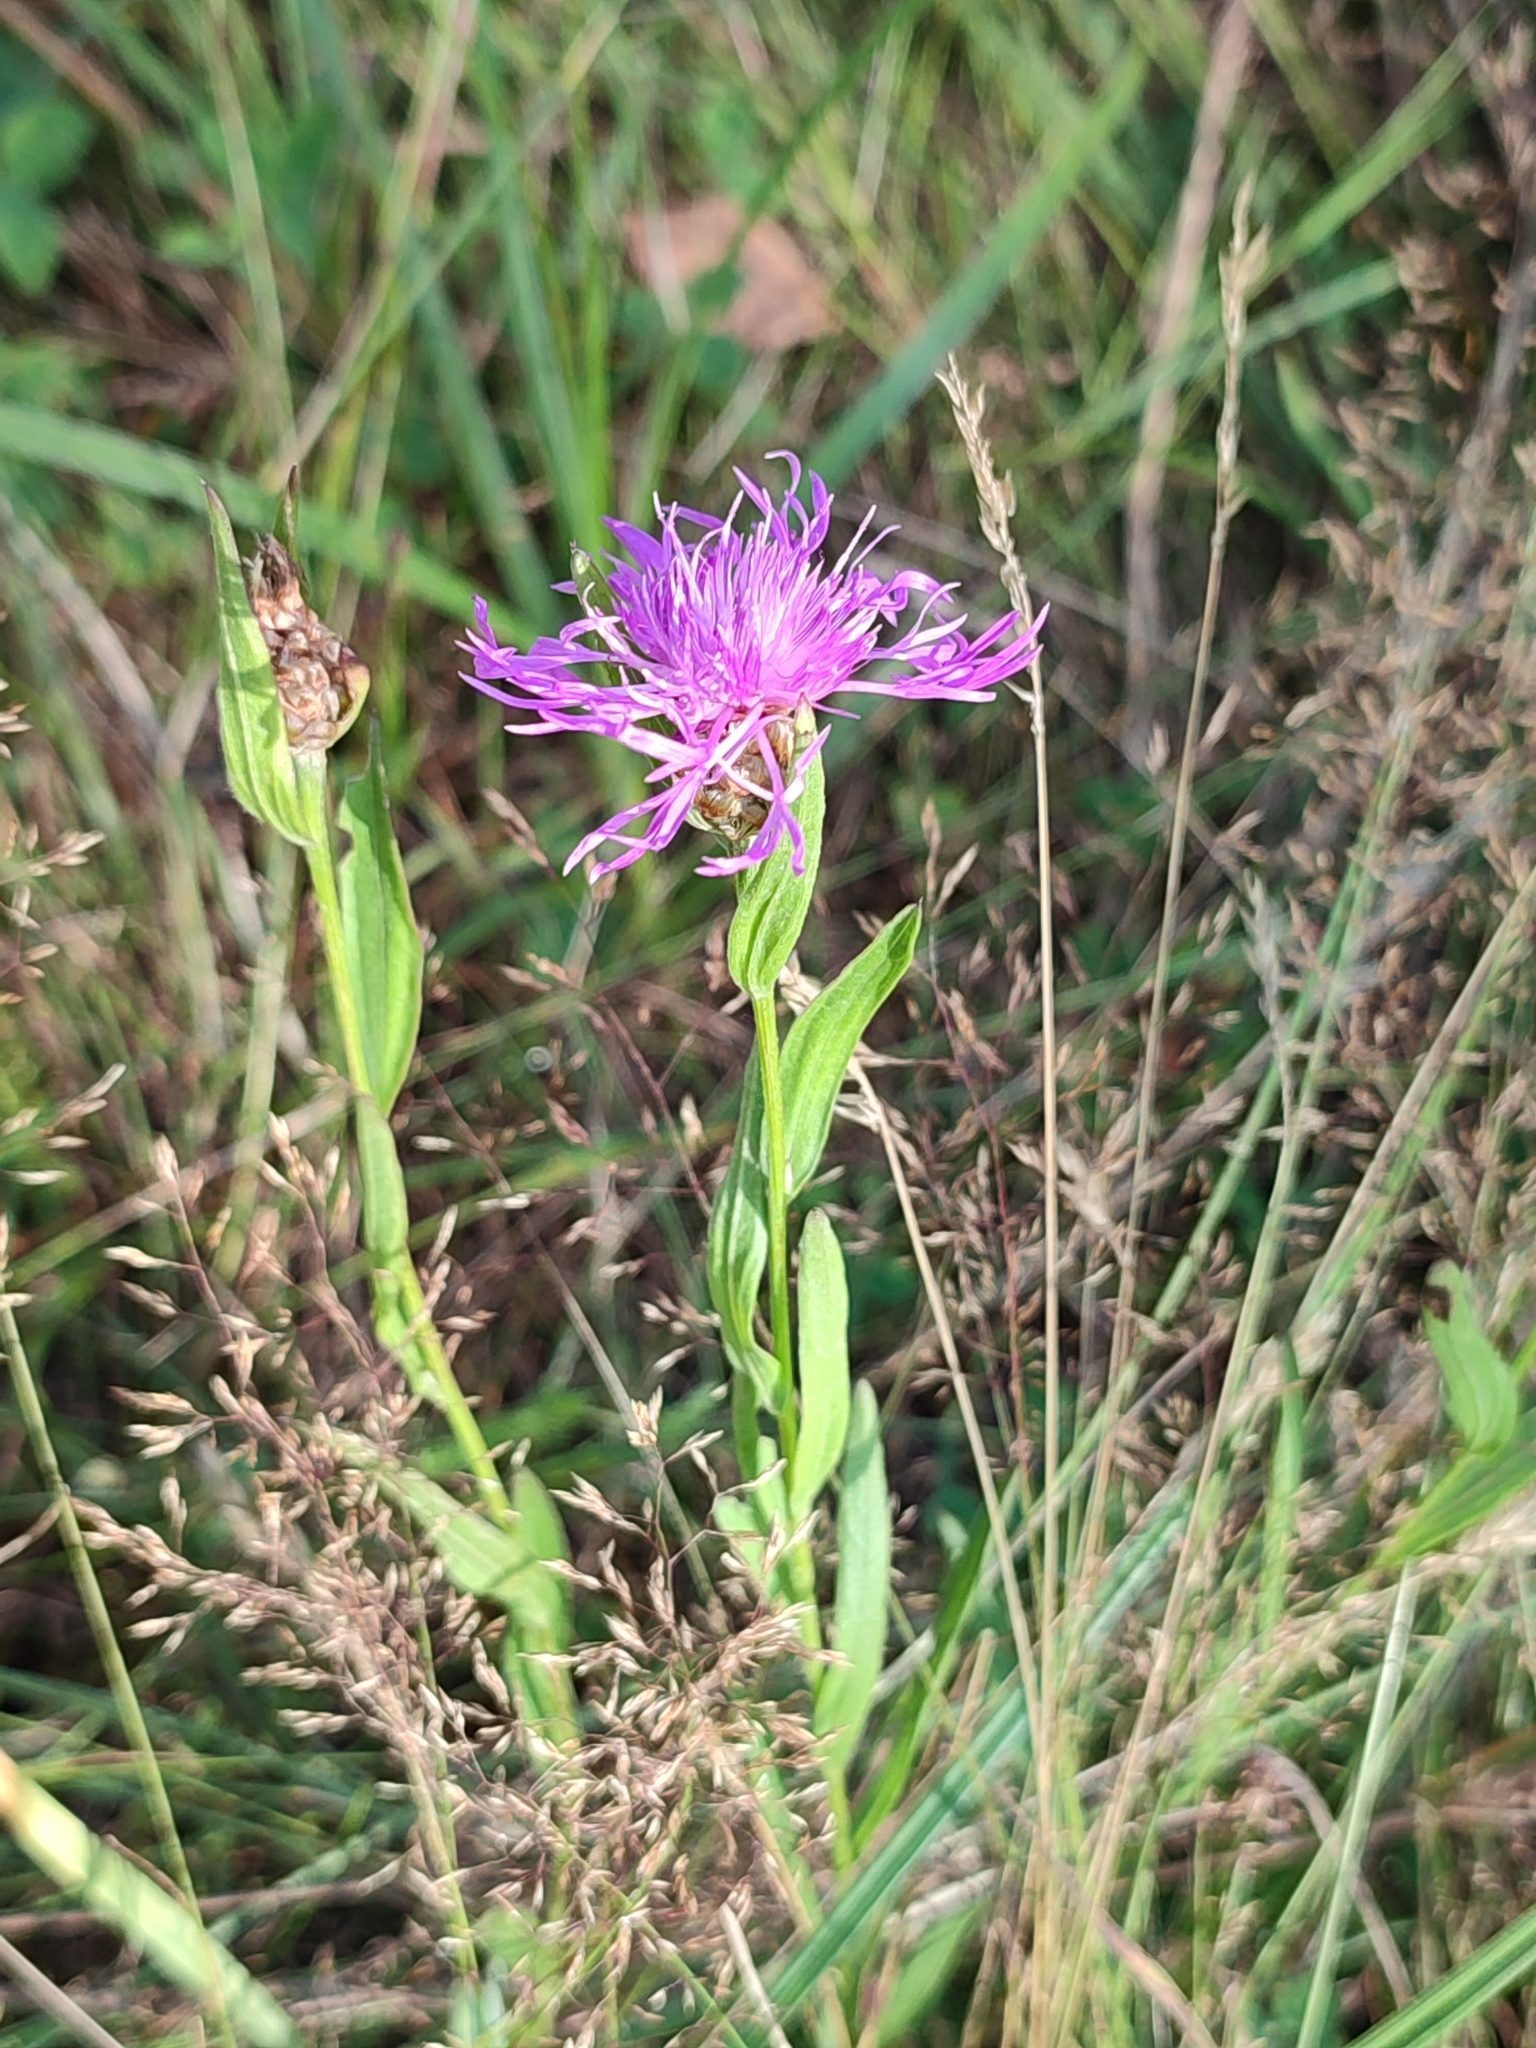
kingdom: Plantae
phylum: Tracheophyta
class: Magnoliopsida
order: Asterales
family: Asteraceae
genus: Centaurea
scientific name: Centaurea jacea
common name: Brown knapweed
